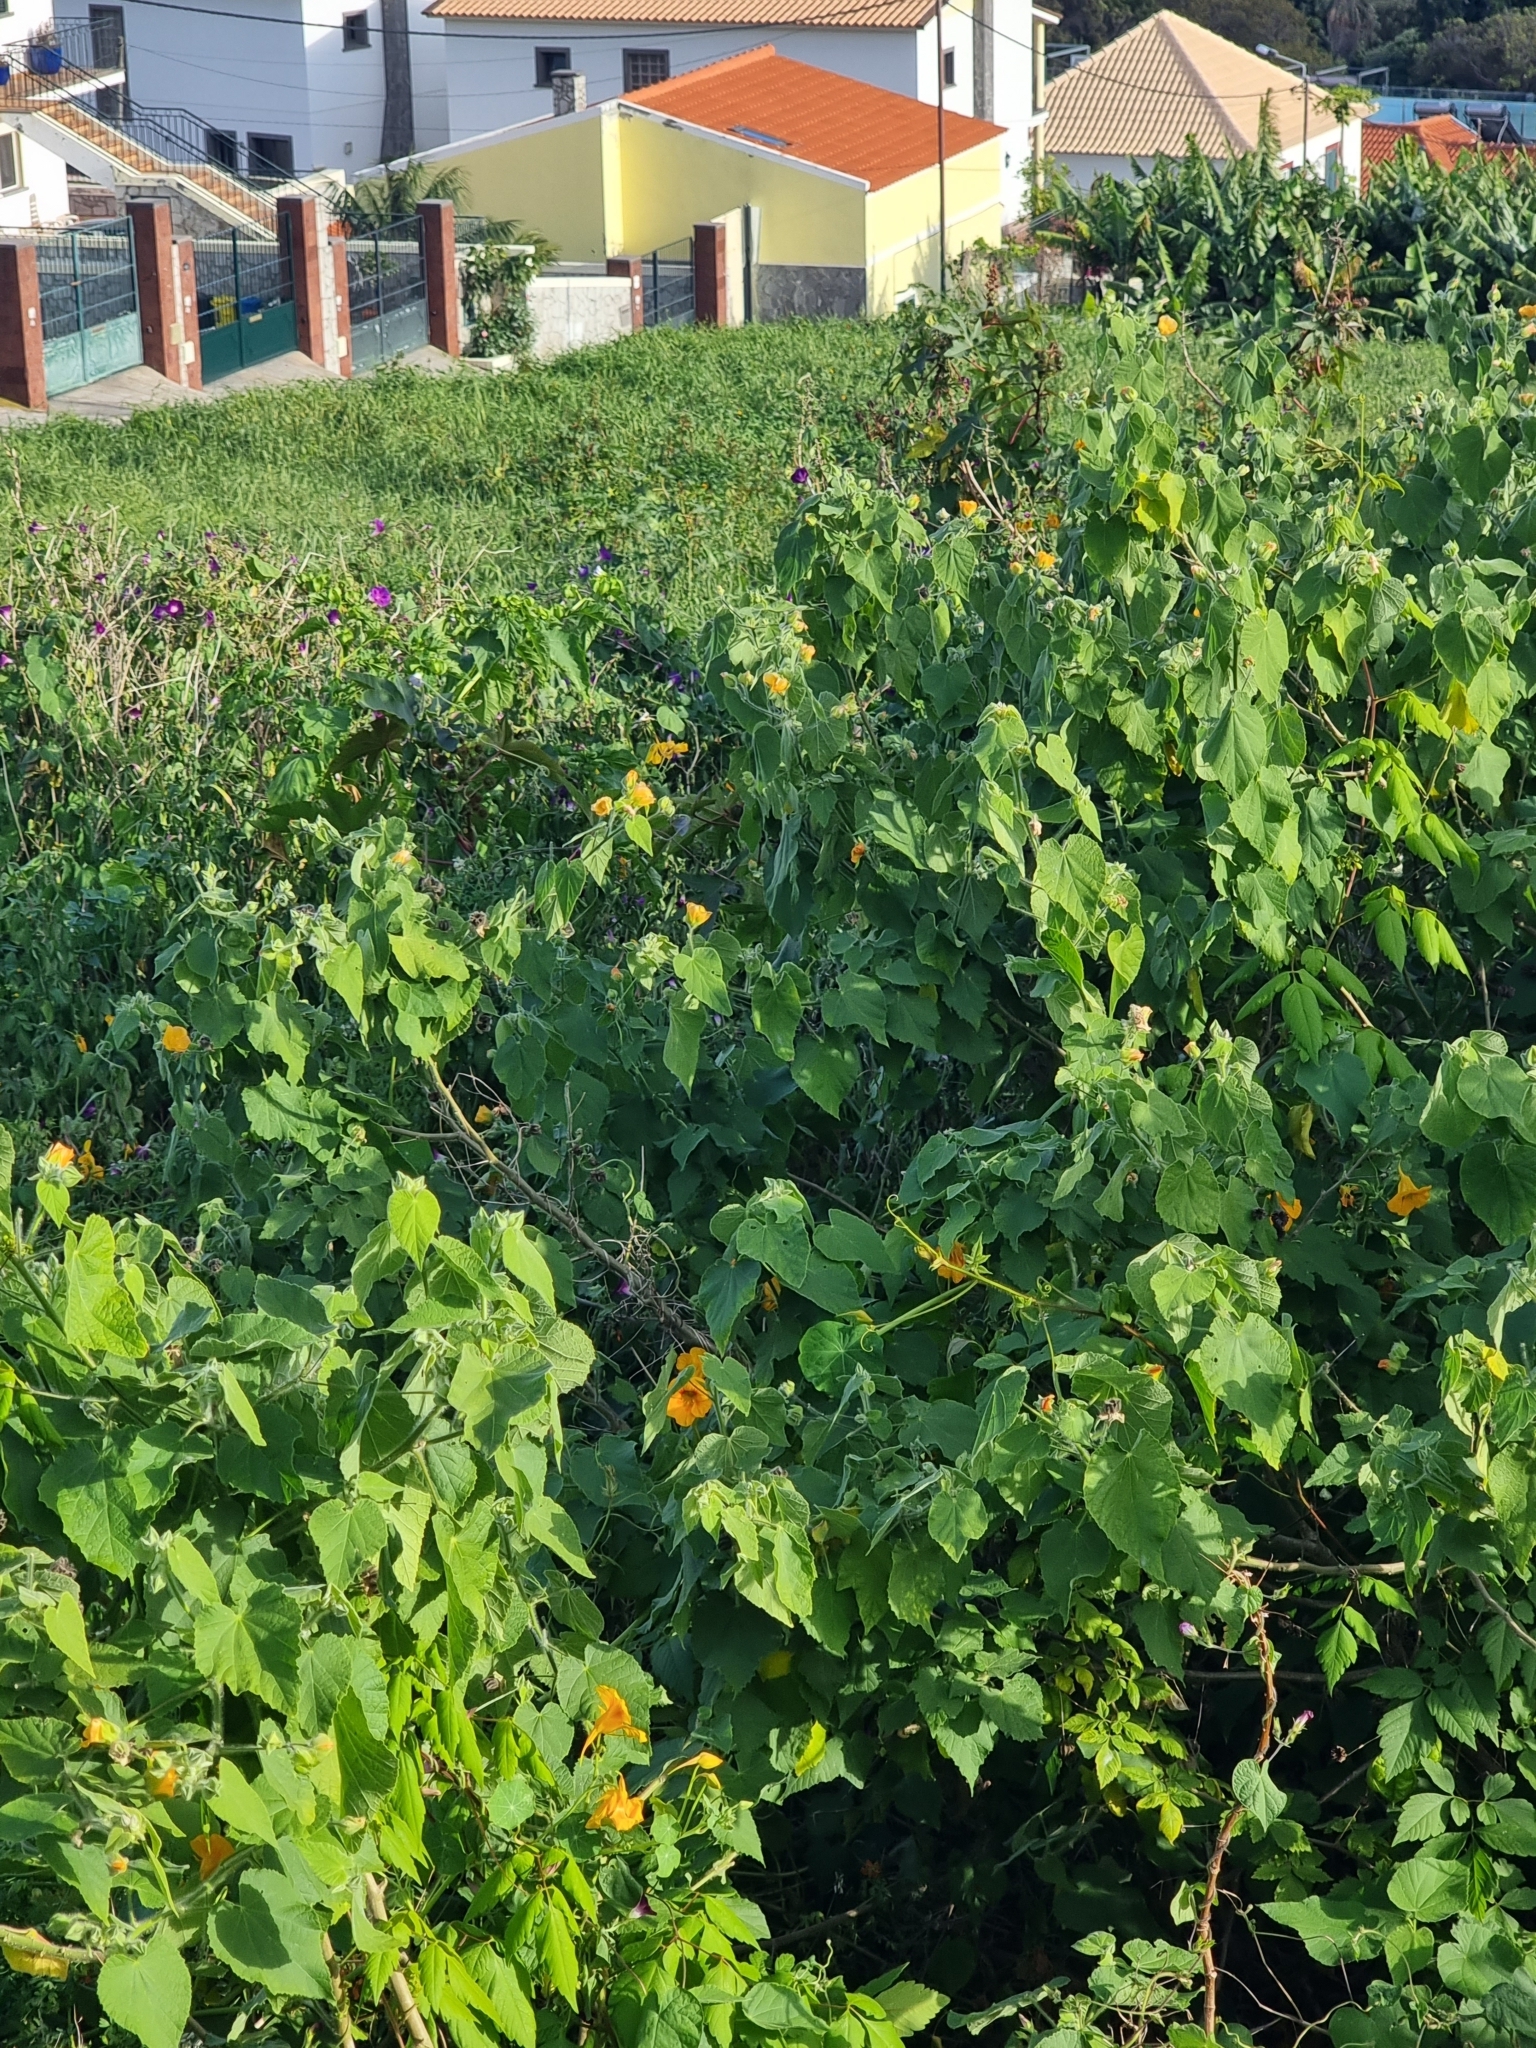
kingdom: Plantae
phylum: Tracheophyta
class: Magnoliopsida
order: Malvales
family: Malvaceae
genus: Abutilon
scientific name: Abutilon grandifolium
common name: Hairy abutilon
